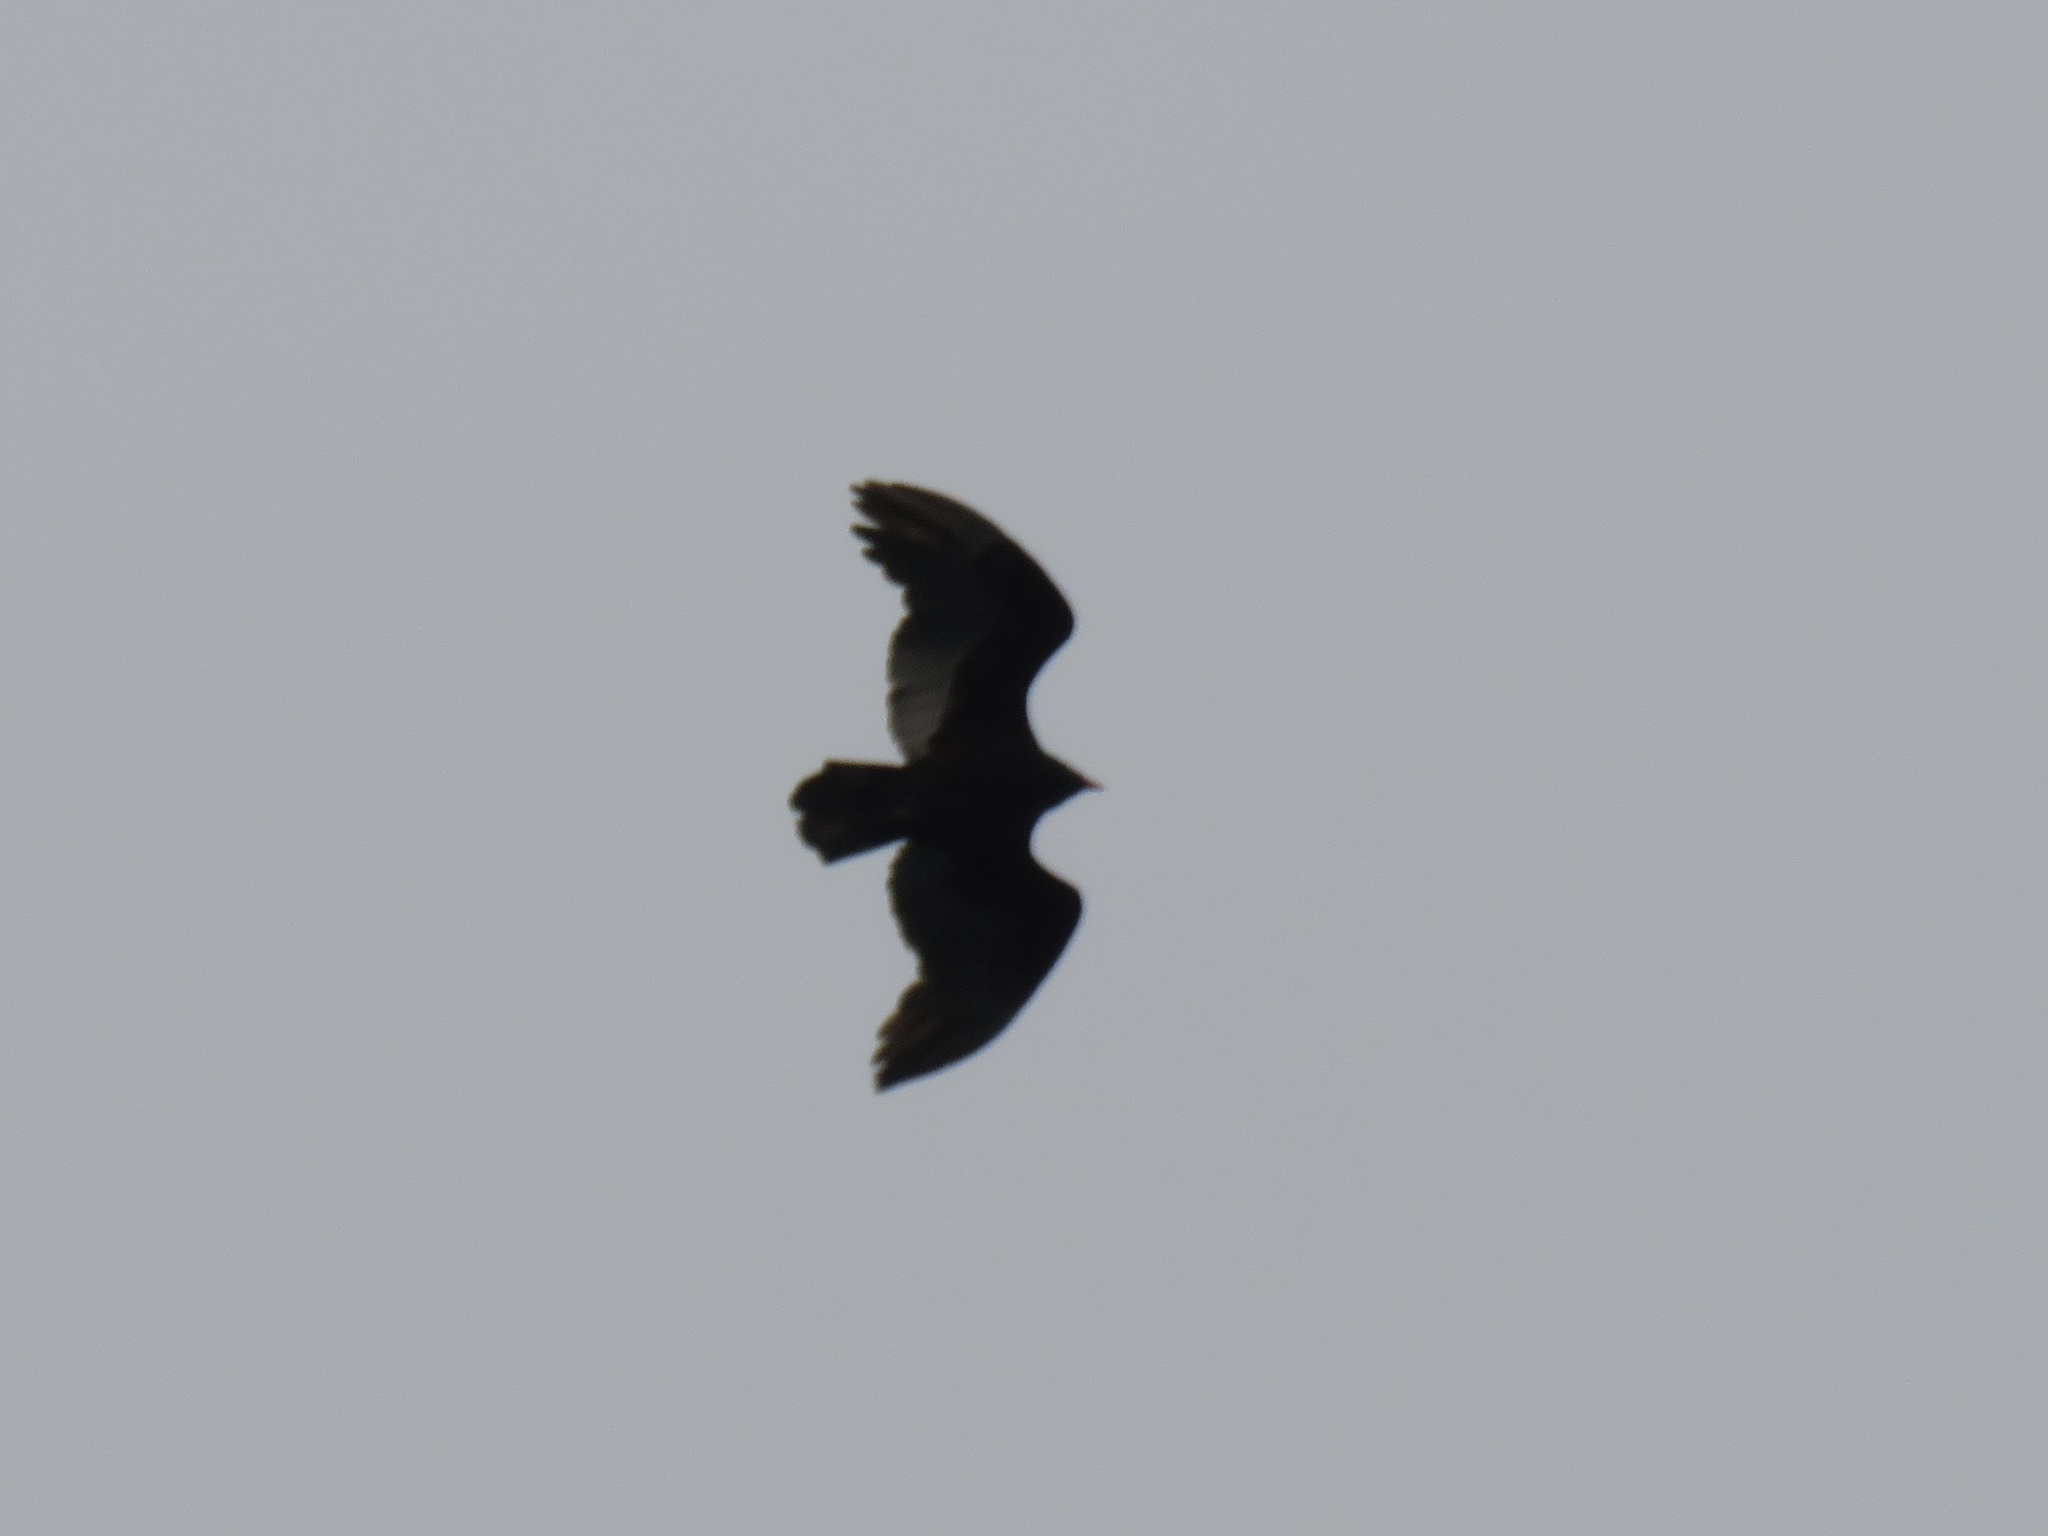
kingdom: Animalia
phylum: Chordata
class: Aves
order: Accipitriformes
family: Cathartidae
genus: Cathartes
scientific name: Cathartes aura
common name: Turkey vulture
